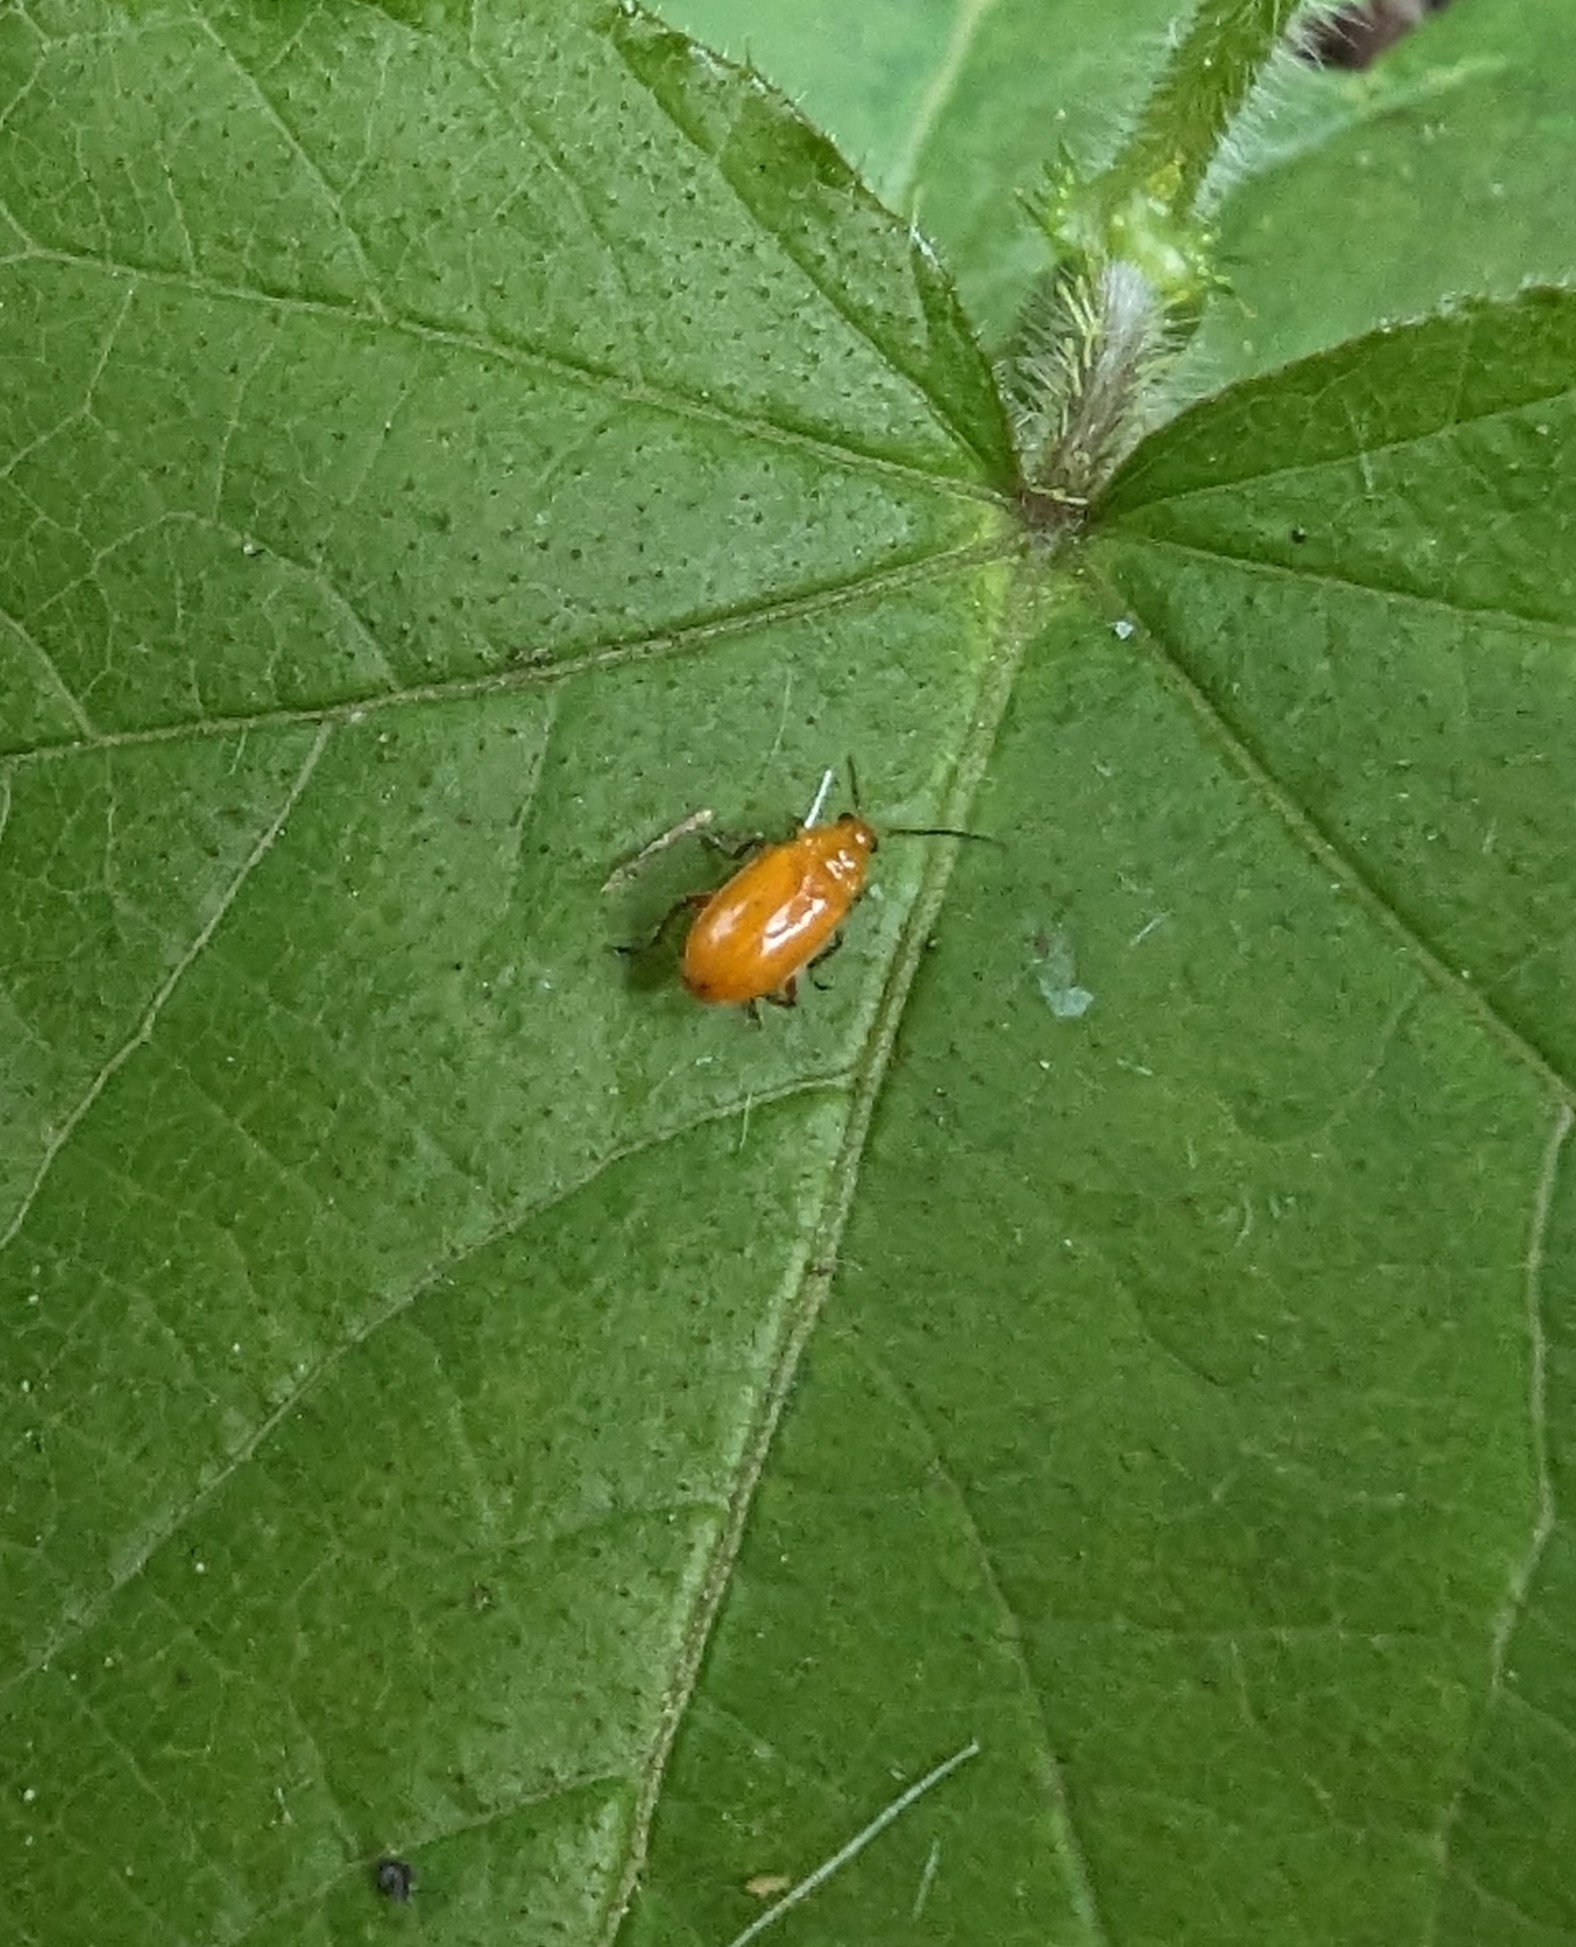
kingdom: Animalia
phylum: Arthropoda
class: Insecta
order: Coleoptera
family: Chrysomelidae
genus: Parchicola
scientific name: Parchicola tibialis
